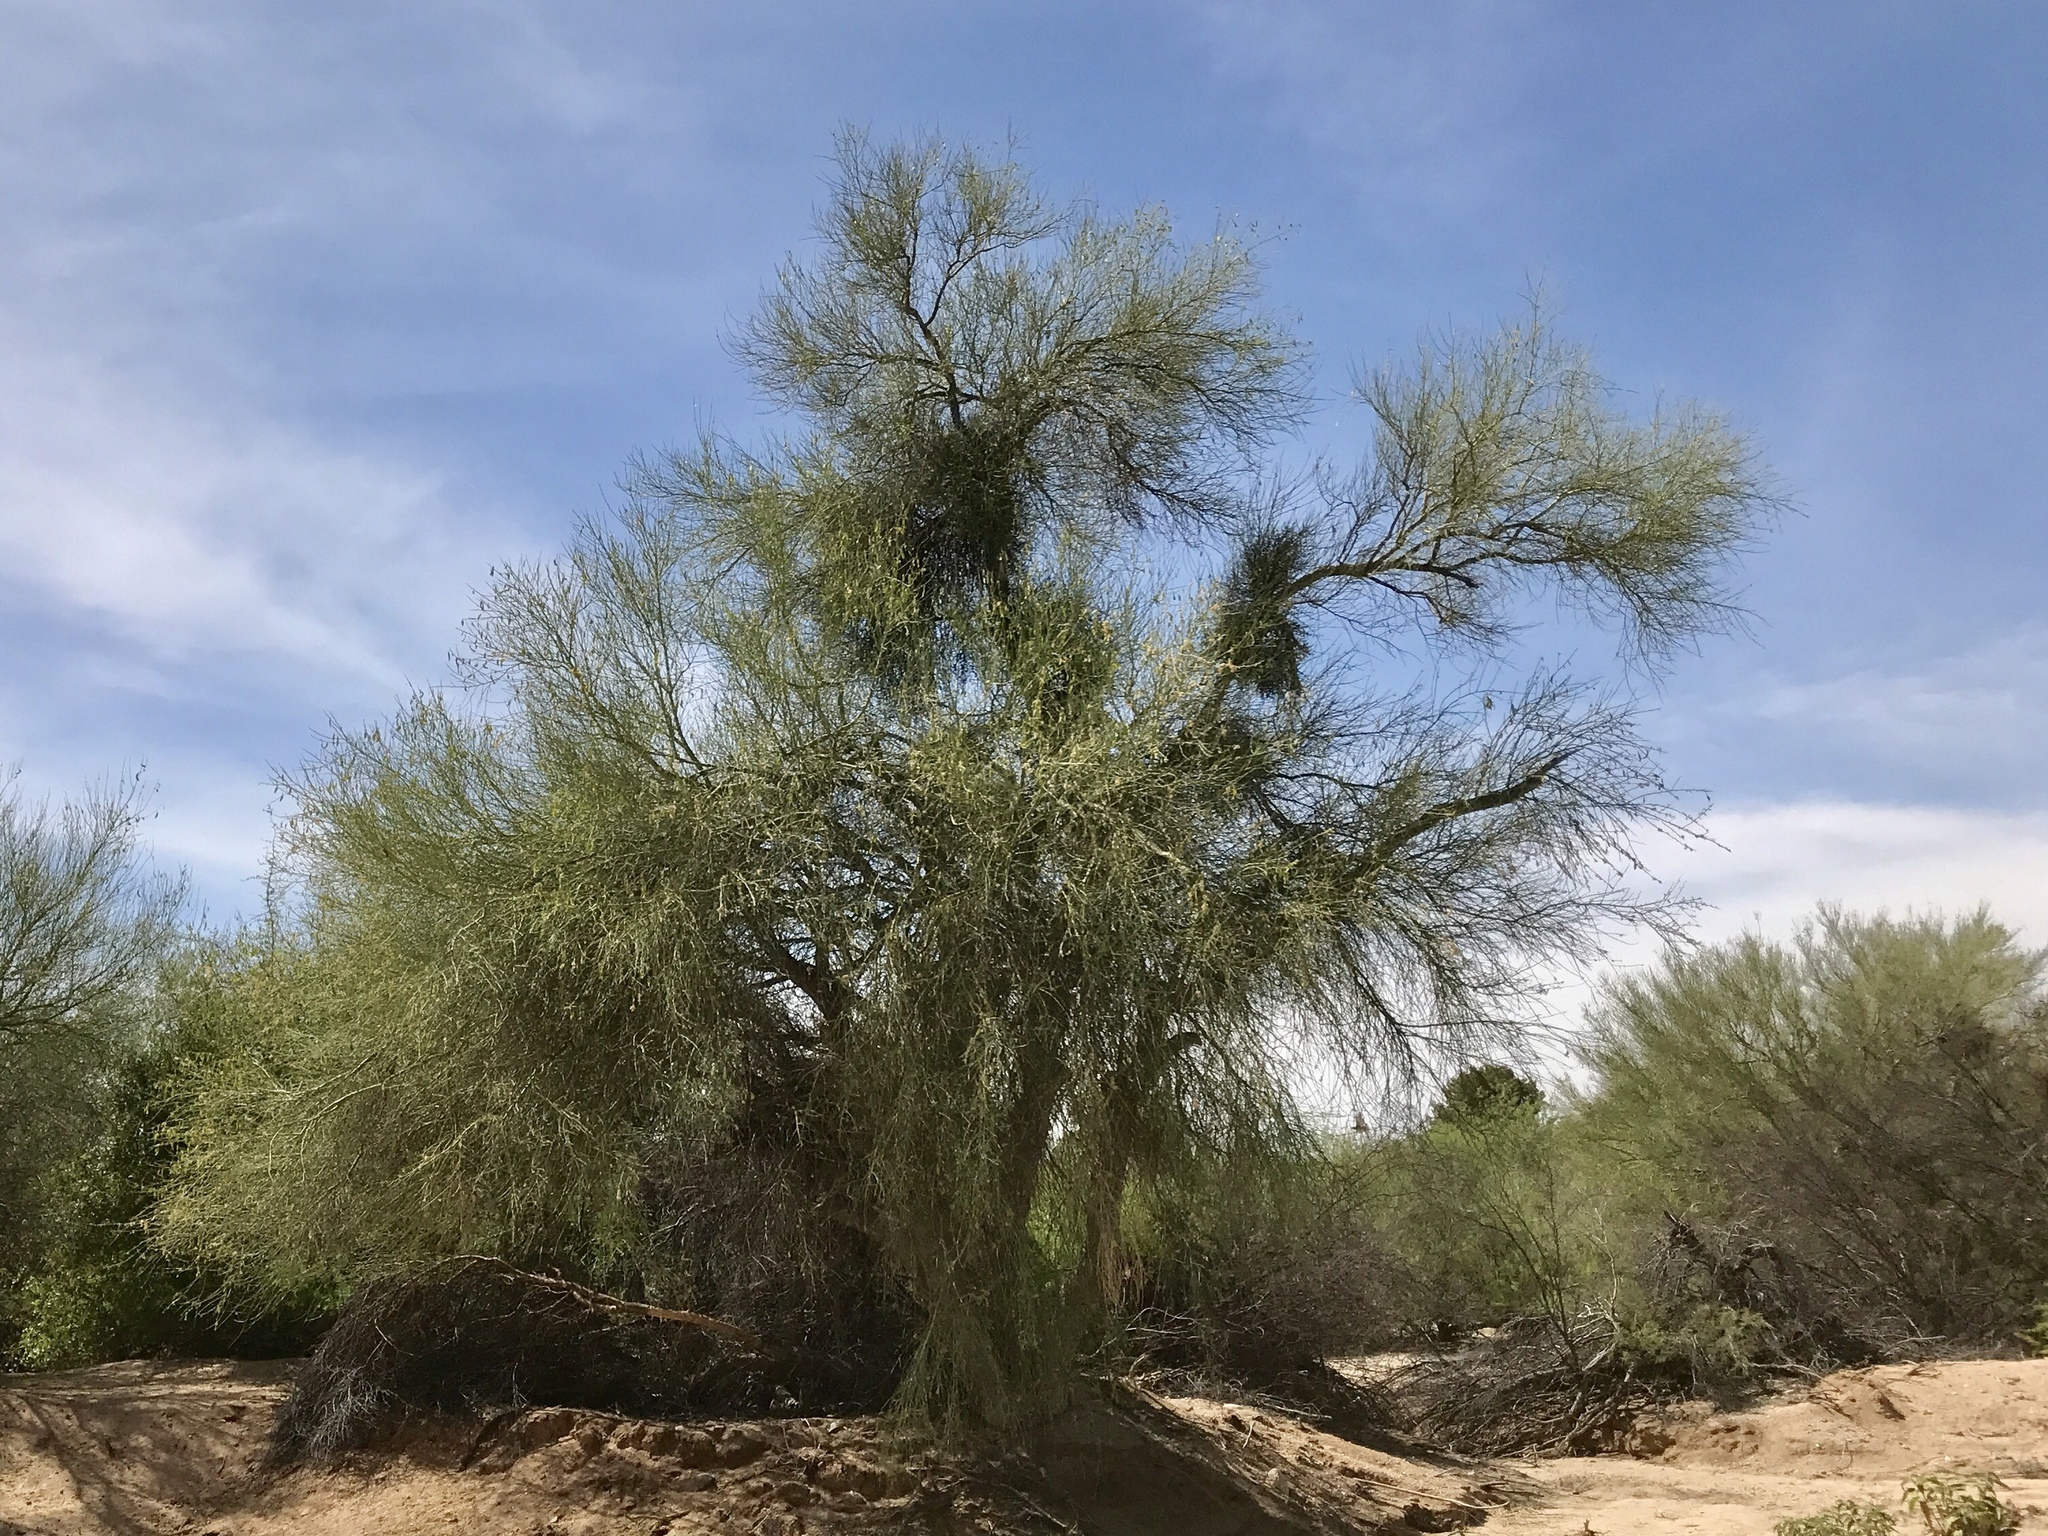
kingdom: Plantae
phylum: Tracheophyta
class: Magnoliopsida
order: Fabales
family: Fabaceae
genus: Parkinsonia
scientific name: Parkinsonia florida
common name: Blue paloverde
